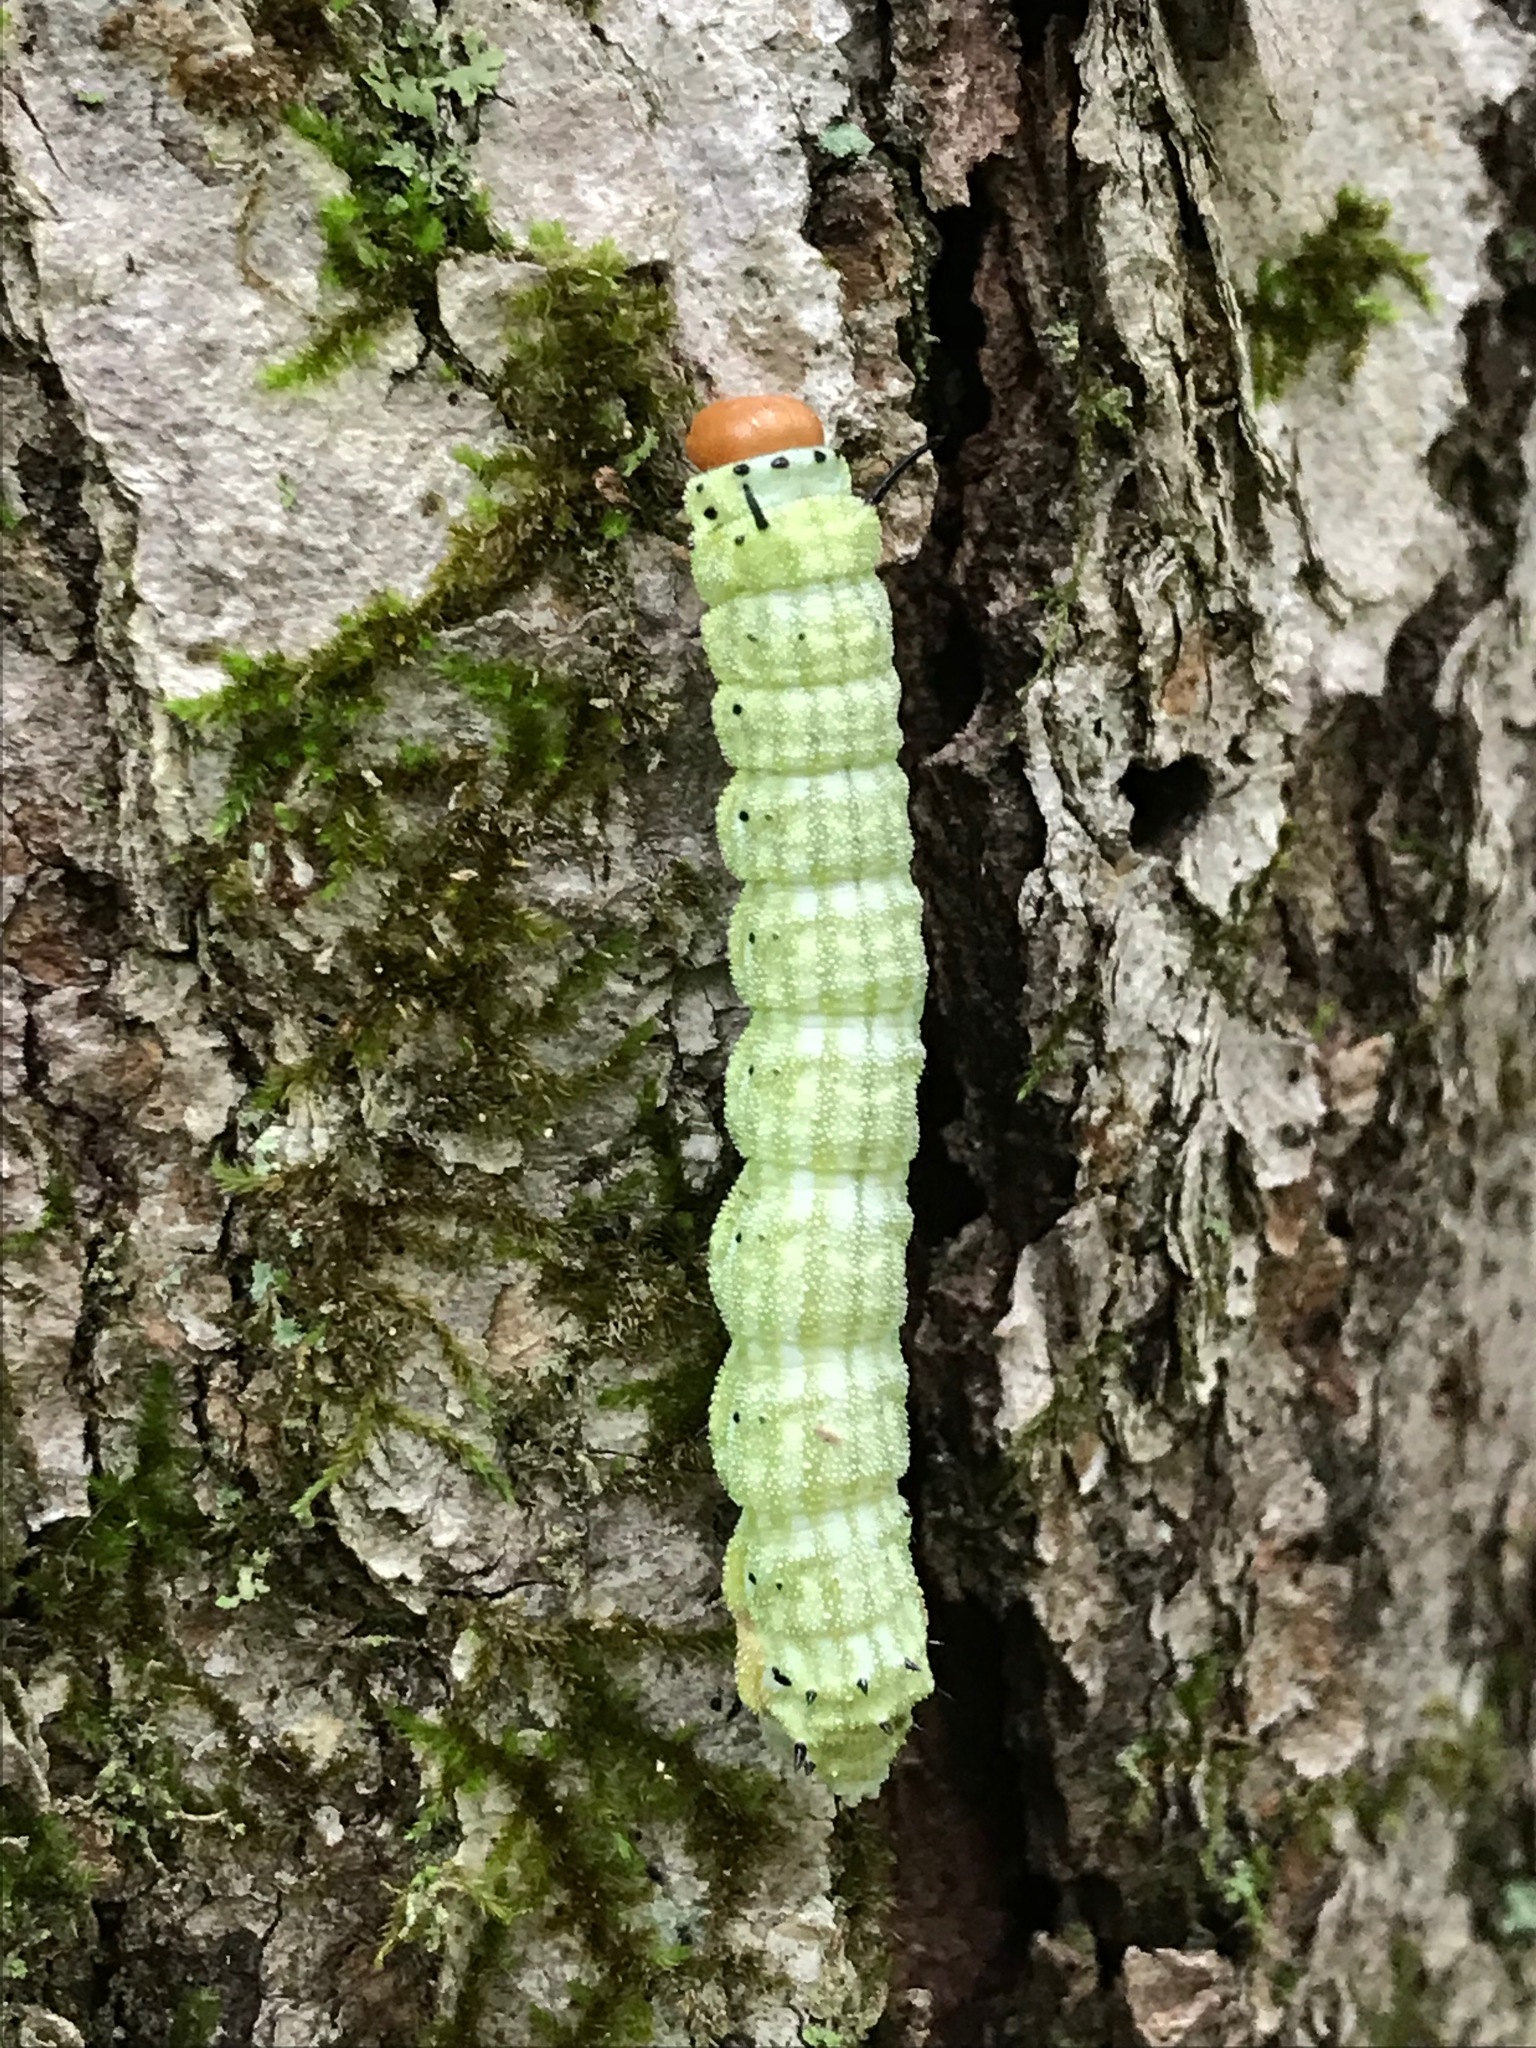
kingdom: Animalia
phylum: Arthropoda
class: Insecta
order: Lepidoptera
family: Saturniidae
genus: Dryocampa
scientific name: Dryocampa rubicunda
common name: Rosy maple moth
